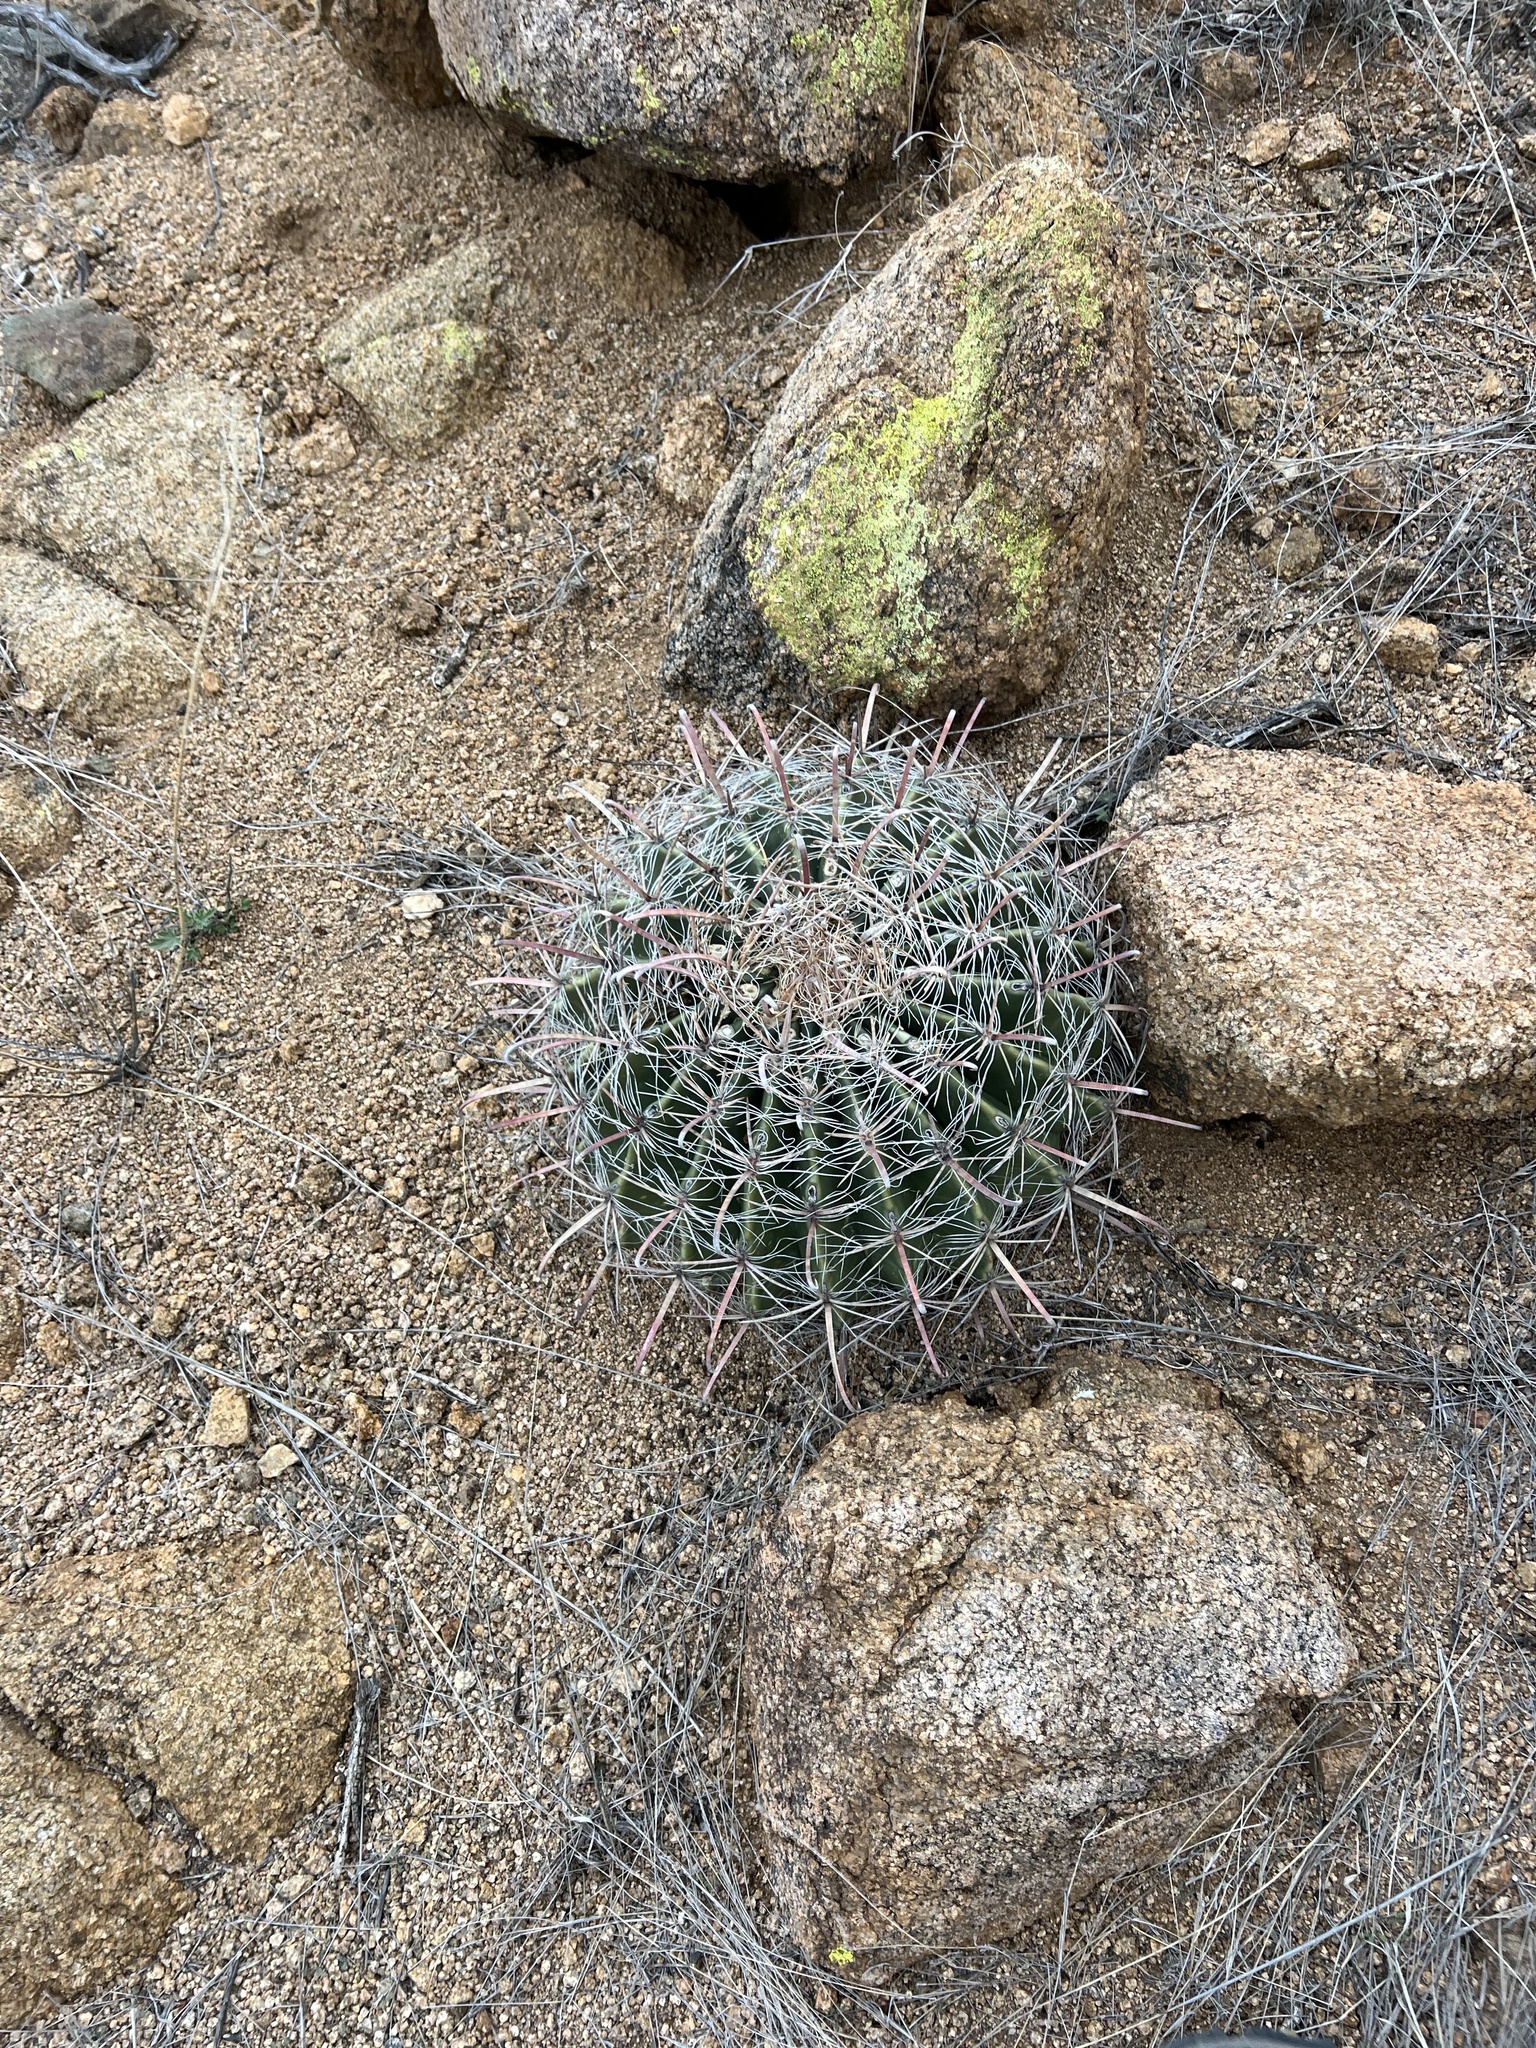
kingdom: Plantae
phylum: Tracheophyta
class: Magnoliopsida
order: Caryophyllales
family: Cactaceae
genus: Ferocactus
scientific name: Ferocactus wislizeni
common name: Candy barrel cactus
